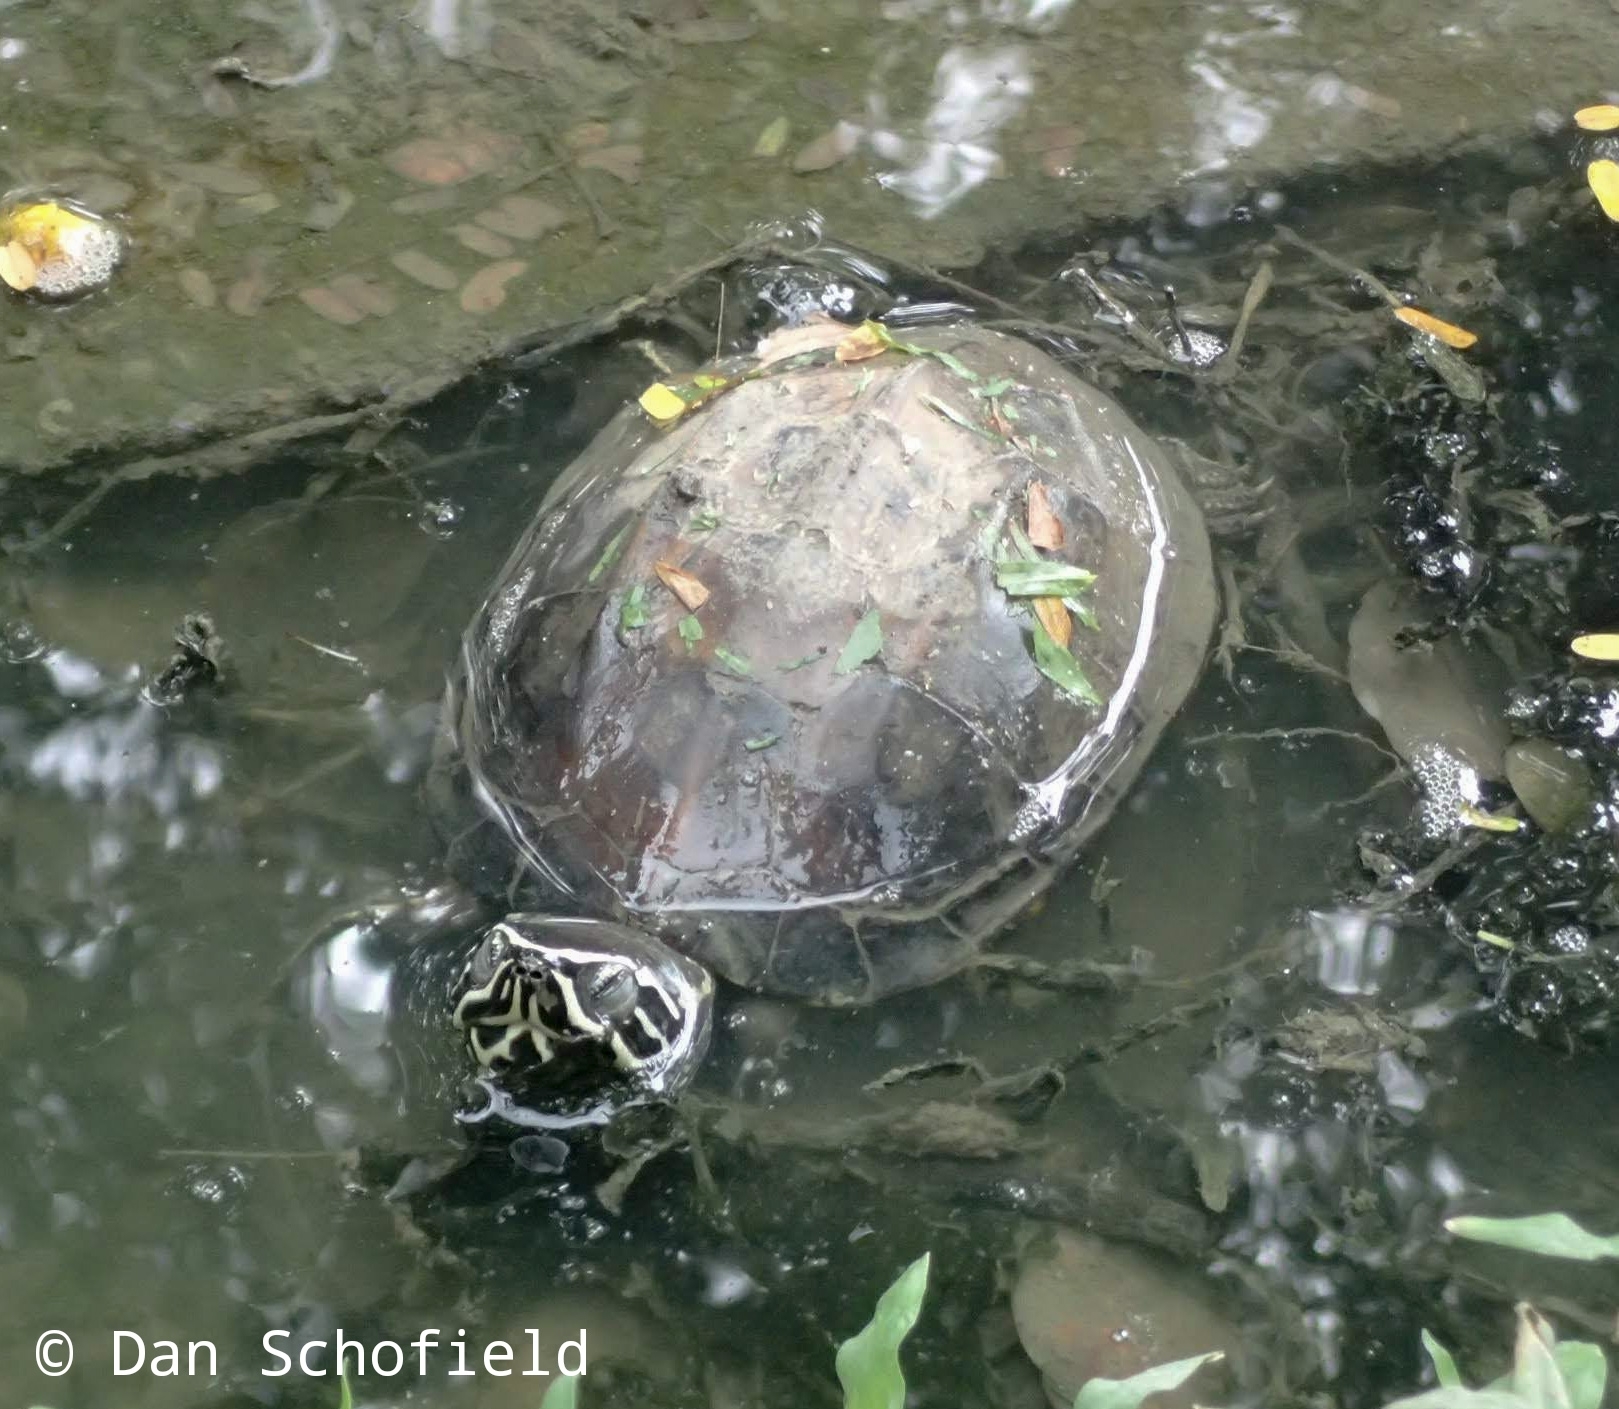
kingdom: Animalia
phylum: Chordata
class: Testudines
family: Geoemydidae
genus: Malayemys
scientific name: Malayemys macrocephala
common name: Malayan snail-eating turtle
